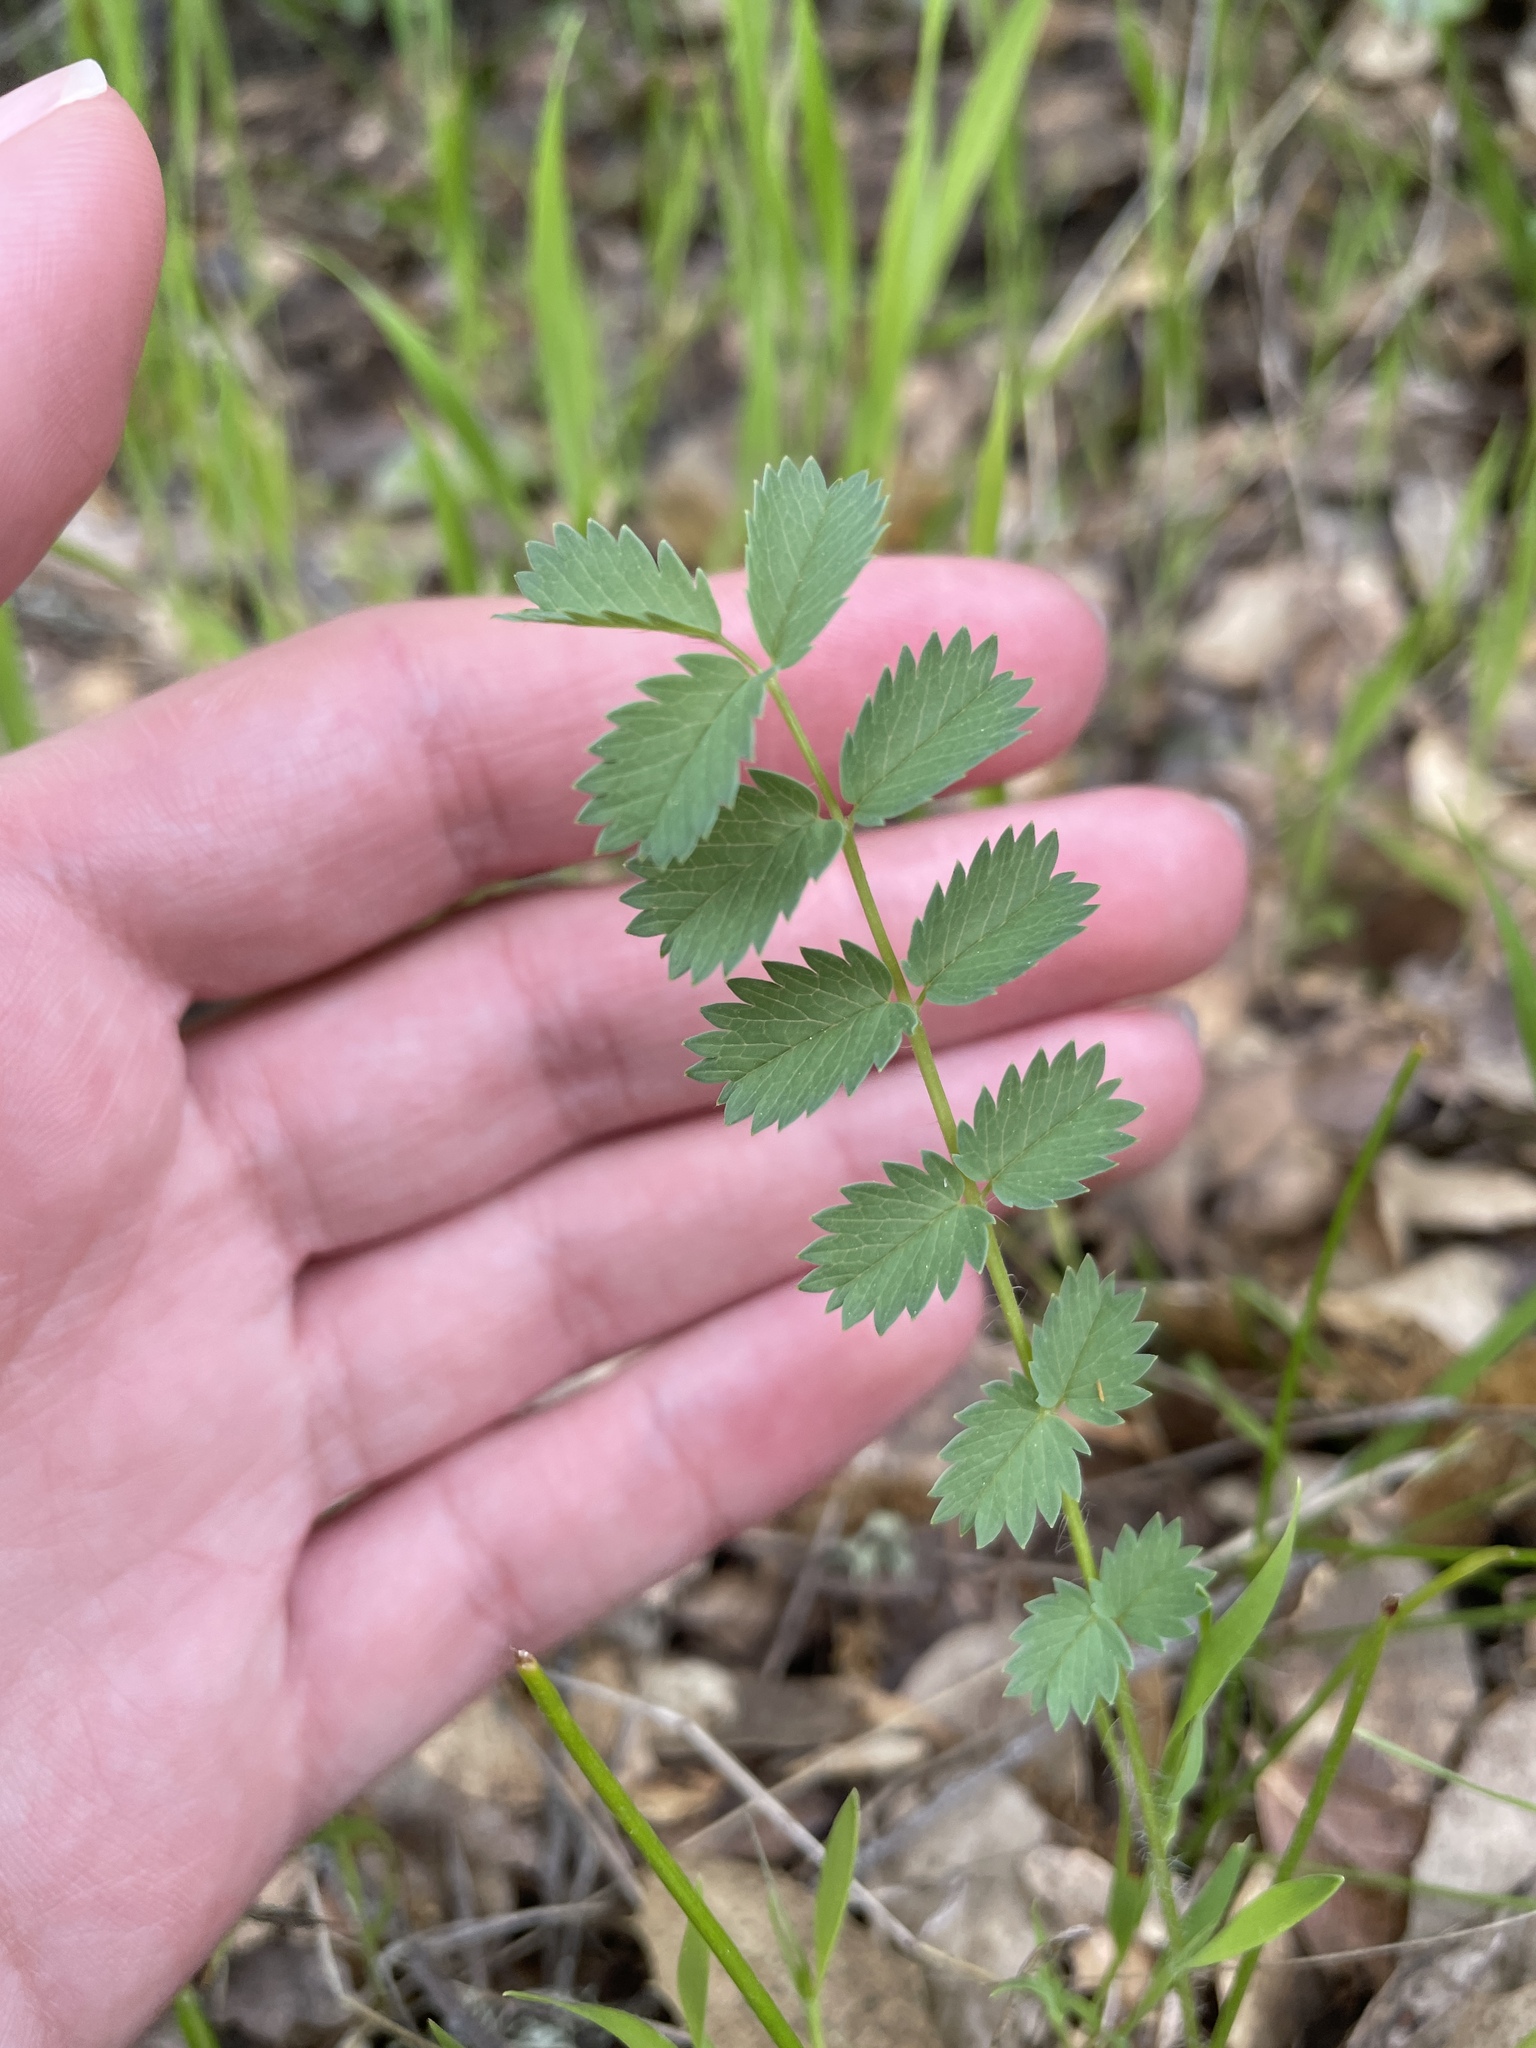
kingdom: Plantae
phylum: Tracheophyta
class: Magnoliopsida
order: Rosales
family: Rosaceae
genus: Poterium
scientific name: Poterium sanguisorba
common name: Salad burnet
